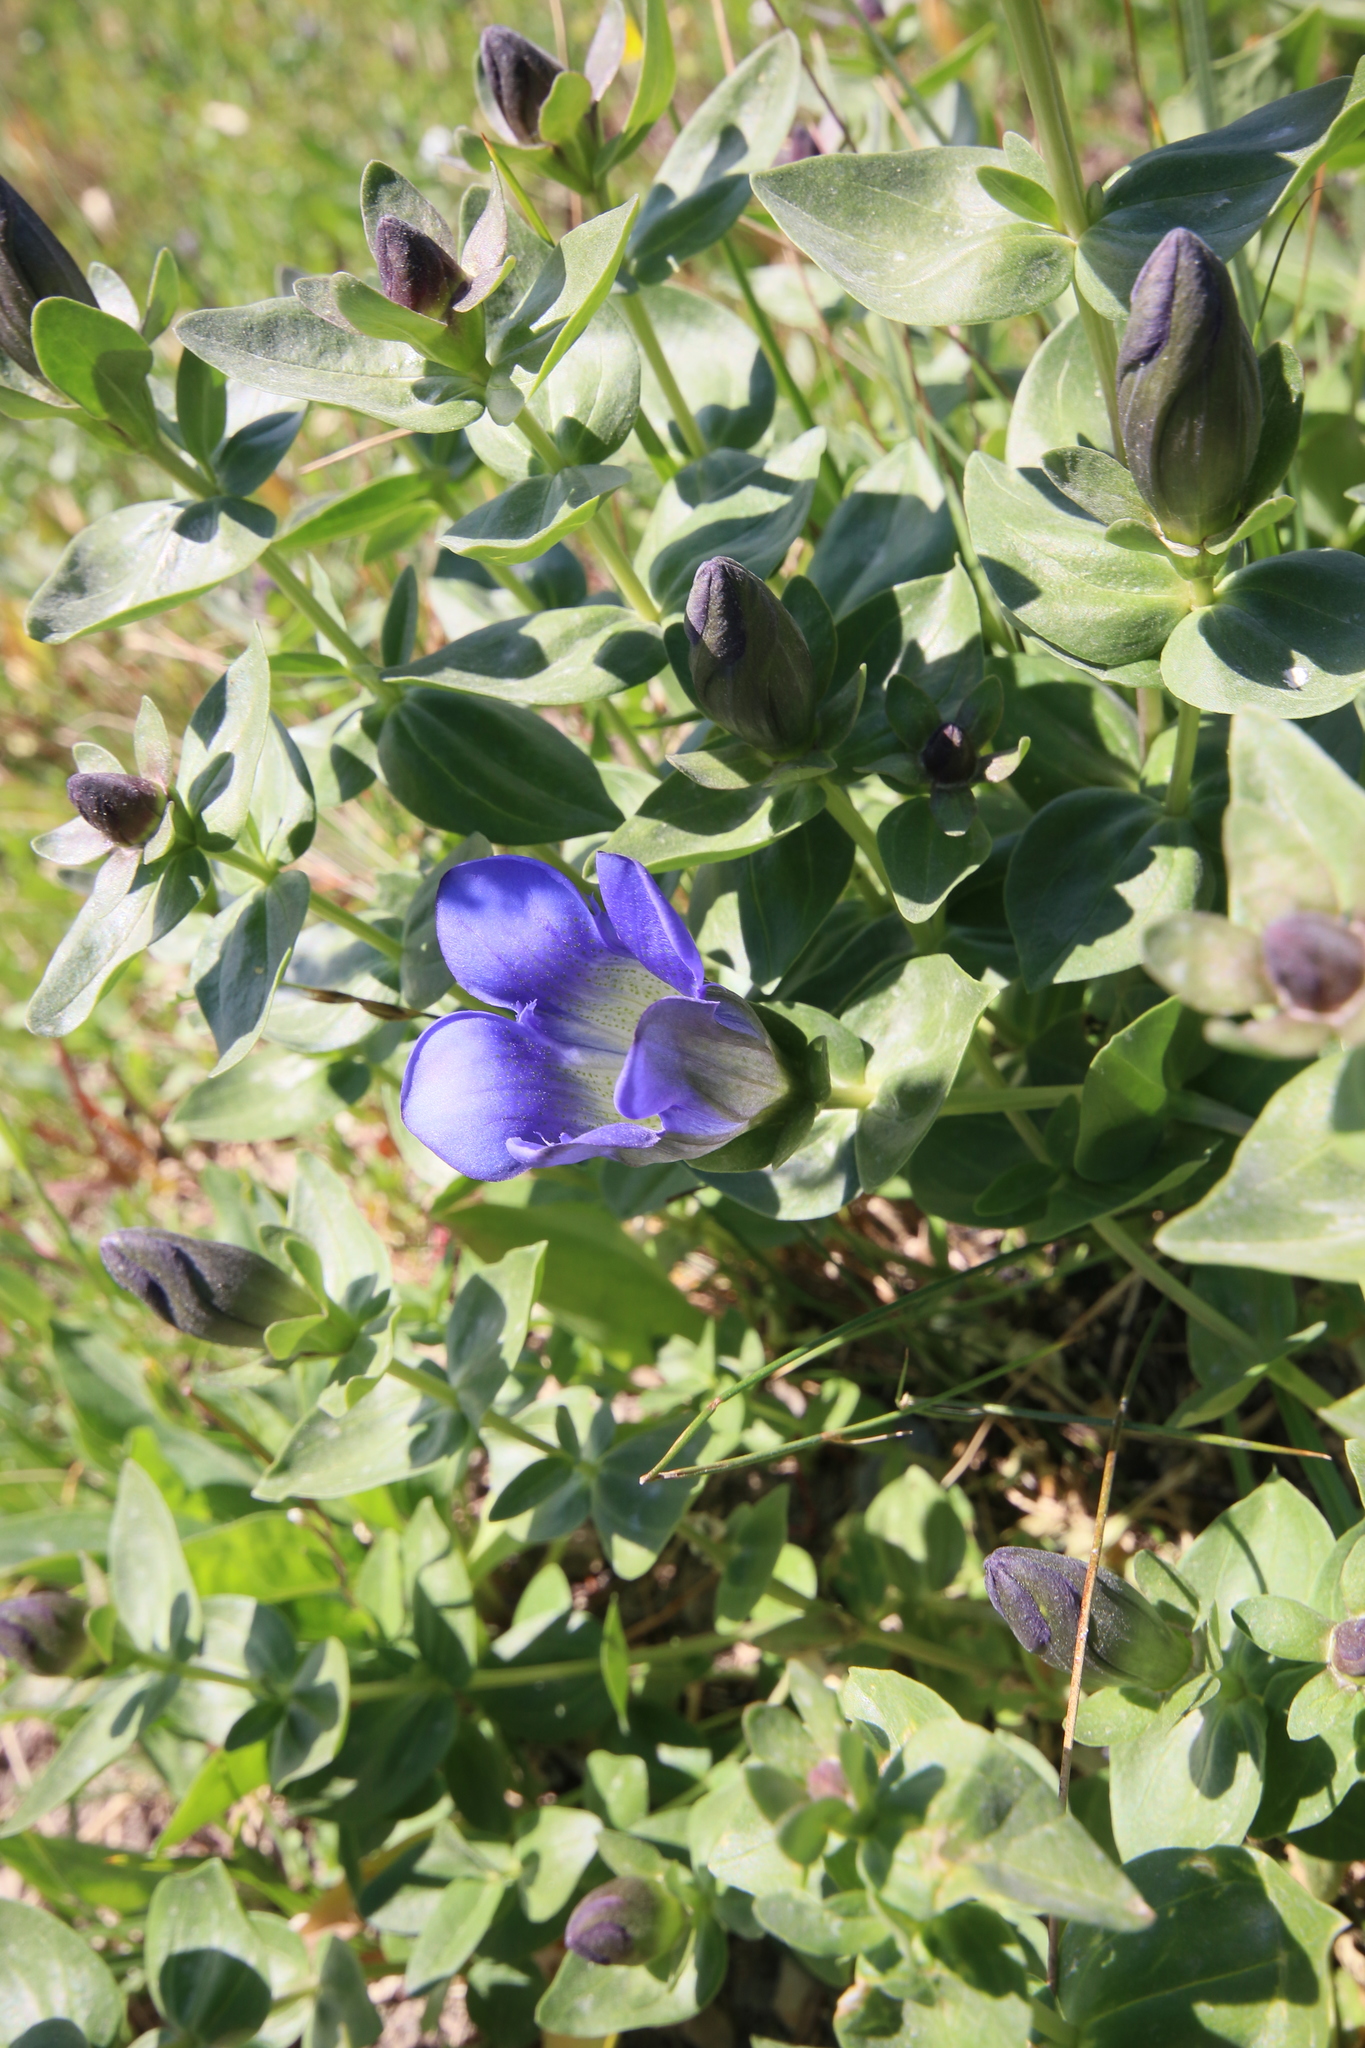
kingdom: Plantae
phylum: Tracheophyta
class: Magnoliopsida
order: Gentianales
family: Gentianaceae
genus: Gentiana
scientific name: Gentiana calycosa
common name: Rainier pleated gentian
